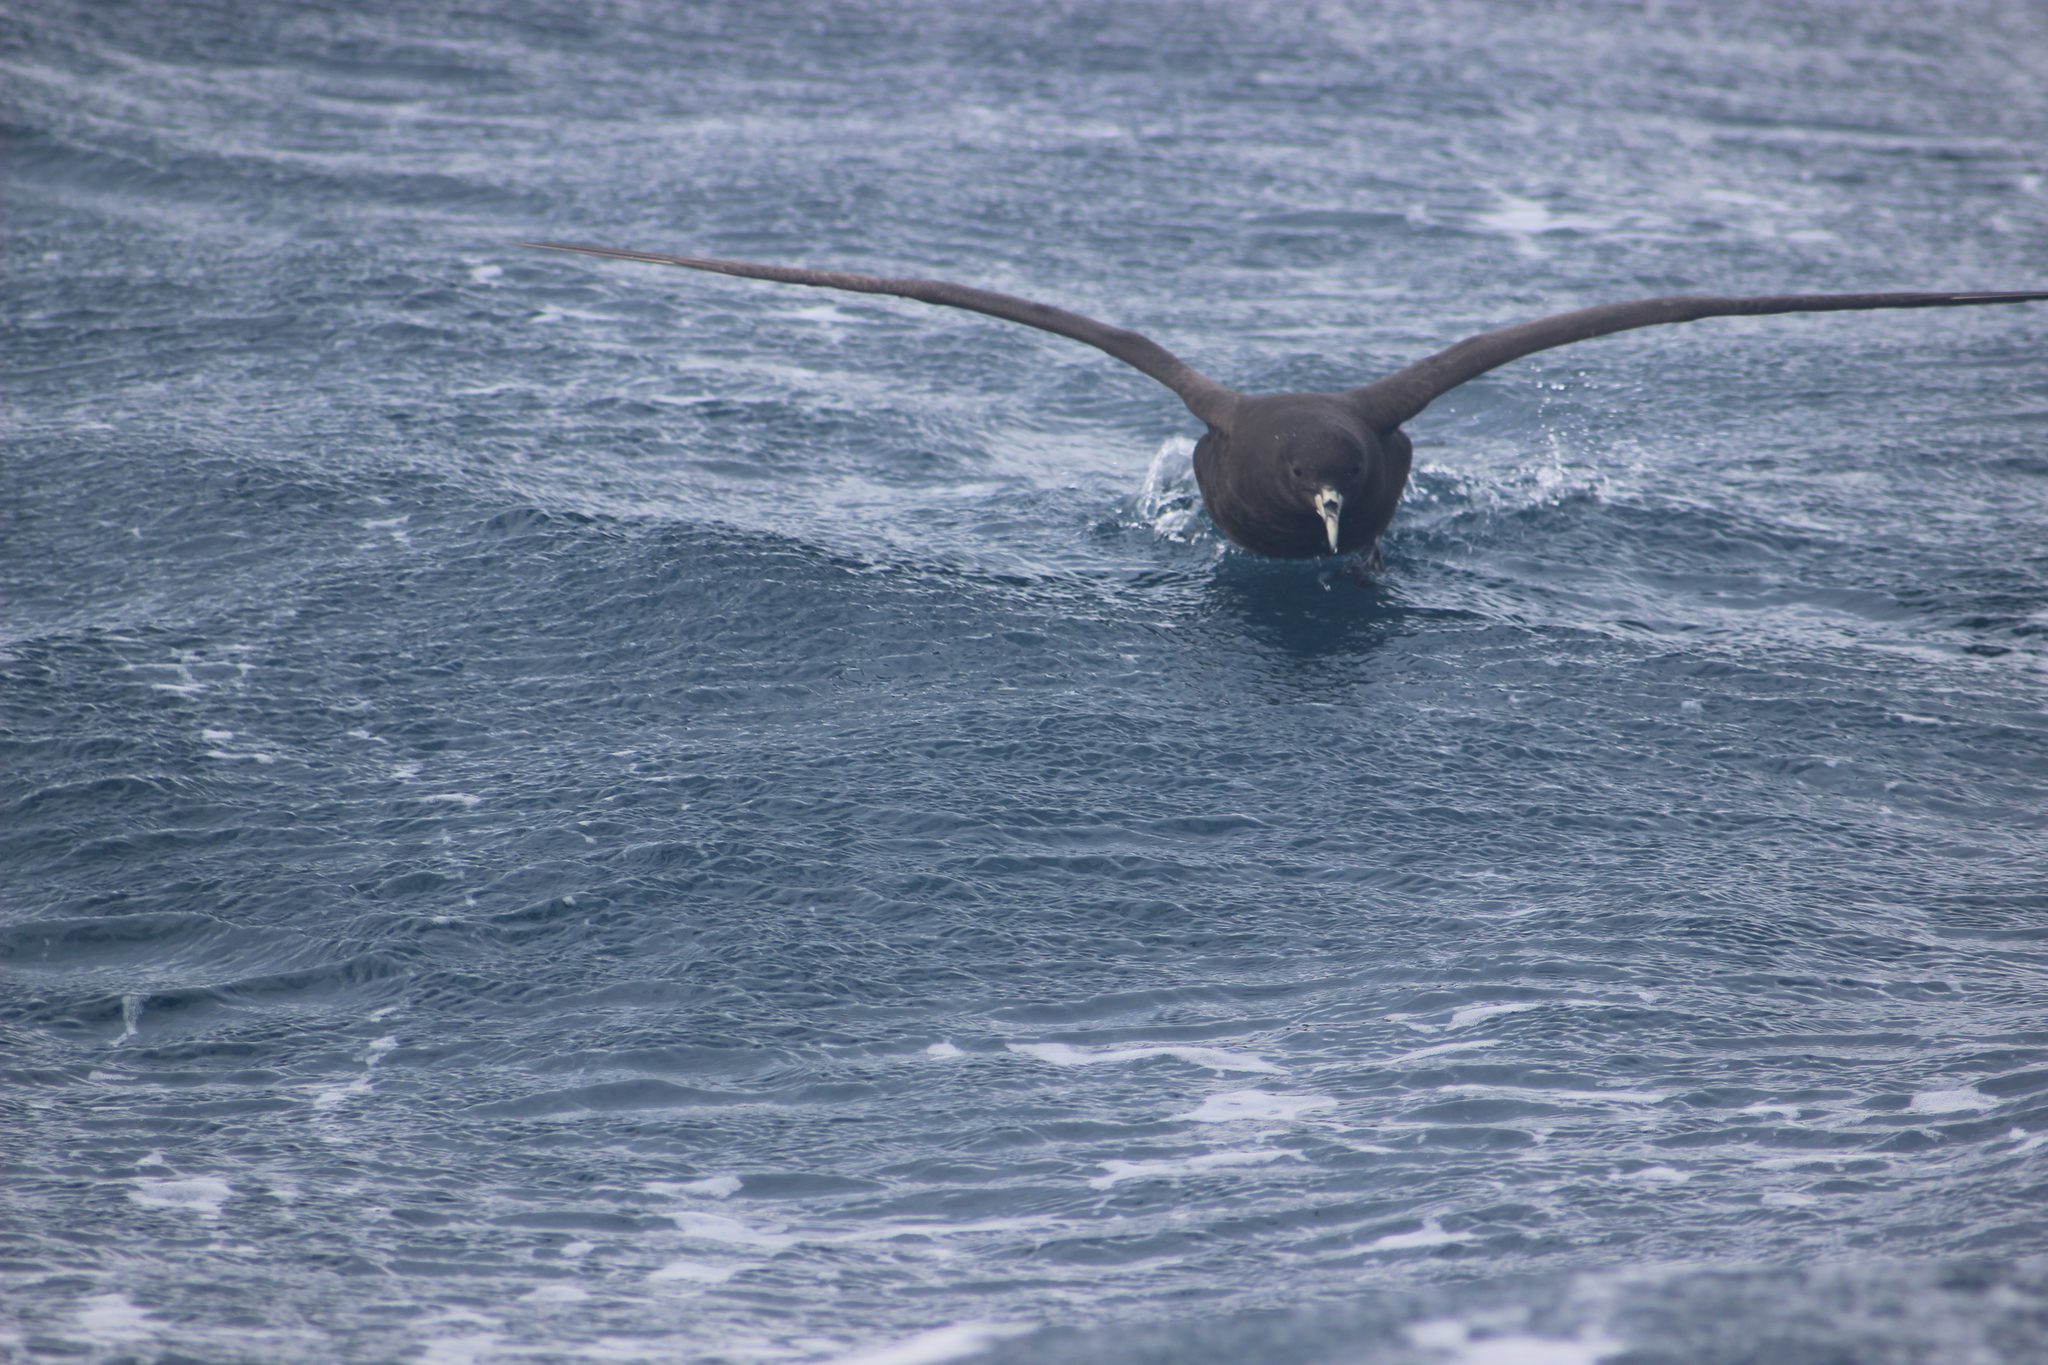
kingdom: Animalia
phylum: Chordata
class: Aves
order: Procellariiformes
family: Procellariidae
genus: Procellaria
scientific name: Procellaria aequinoctialis
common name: White-chinned petrel
